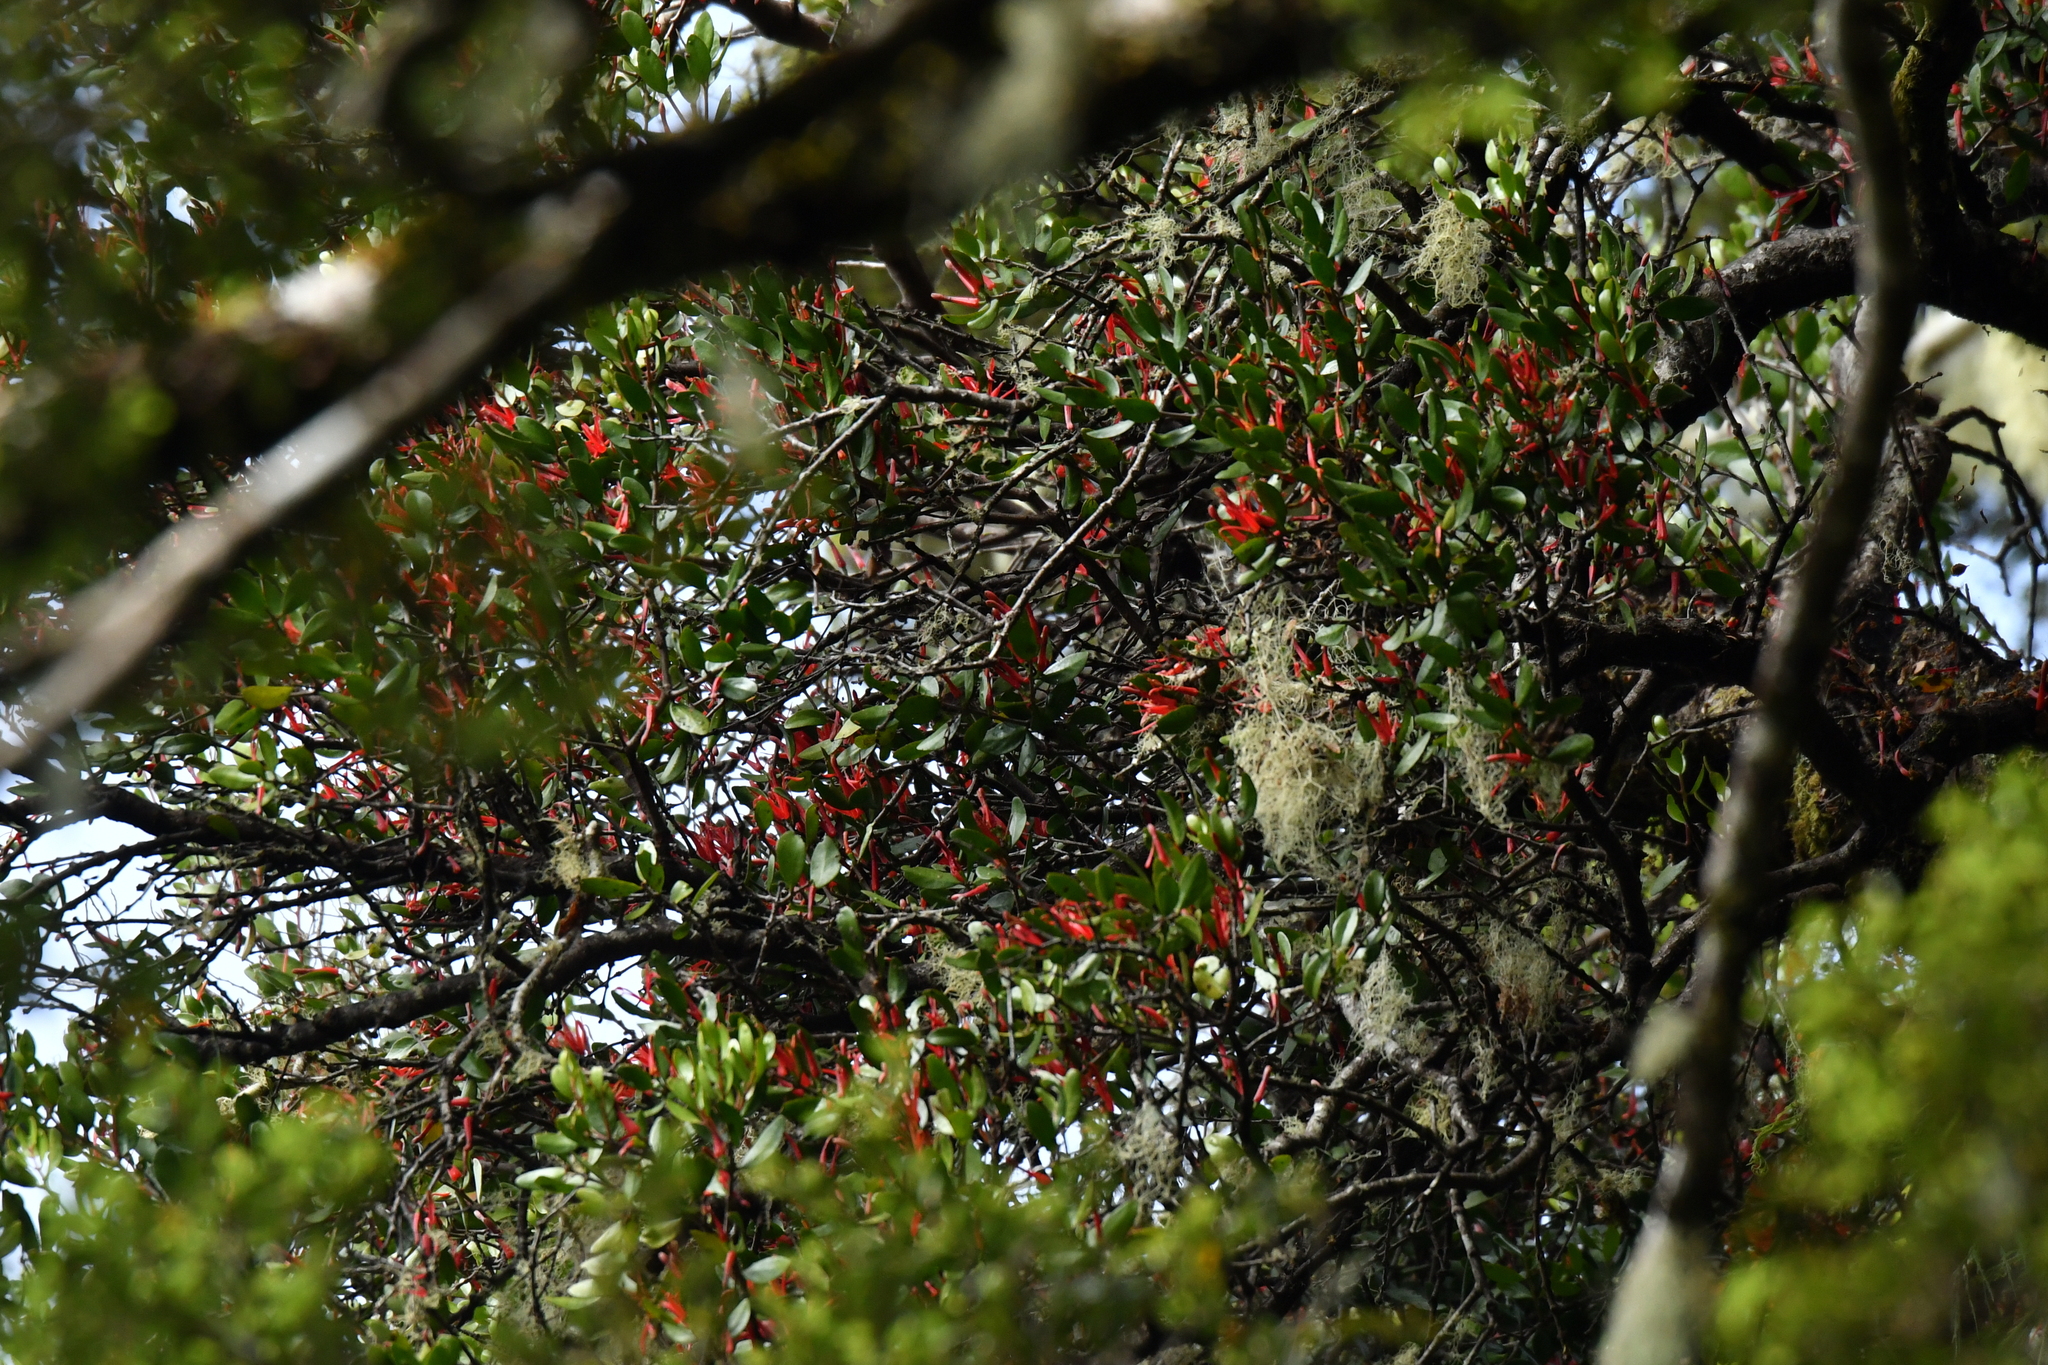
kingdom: Plantae
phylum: Tracheophyta
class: Magnoliopsida
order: Santalales
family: Loranthaceae
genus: Peraxilla
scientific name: Peraxilla tetrapetala
